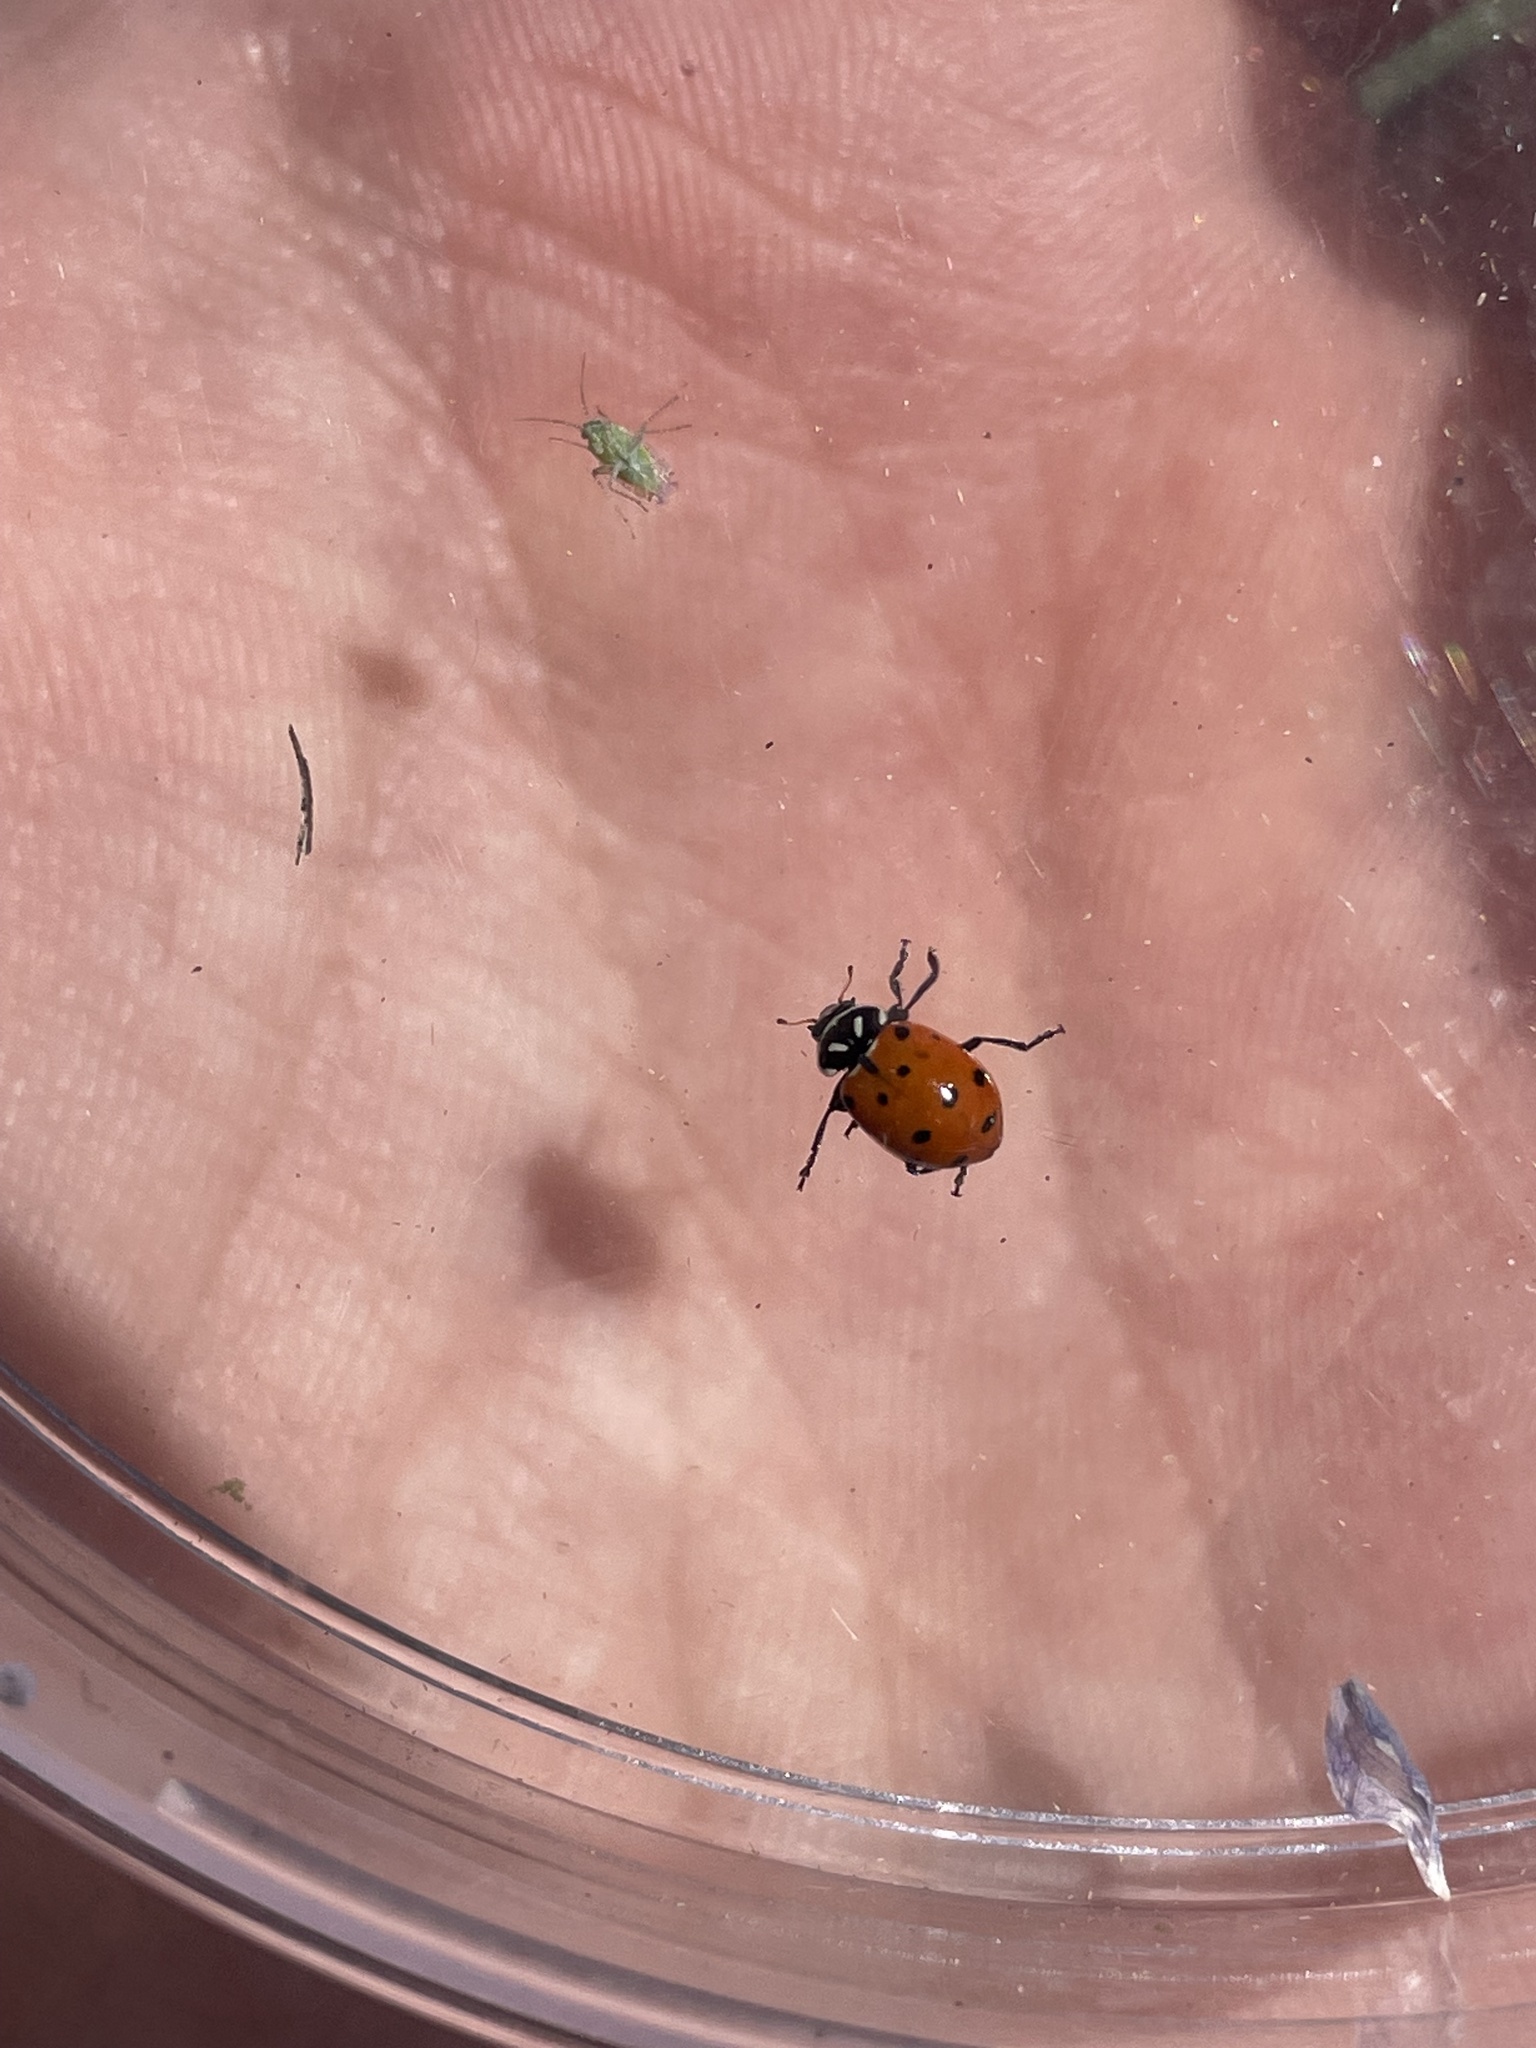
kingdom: Animalia
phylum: Arthropoda
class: Insecta
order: Coleoptera
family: Coccinellidae
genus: Hippodamia
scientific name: Hippodamia convergens
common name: Convergent lady beetle
